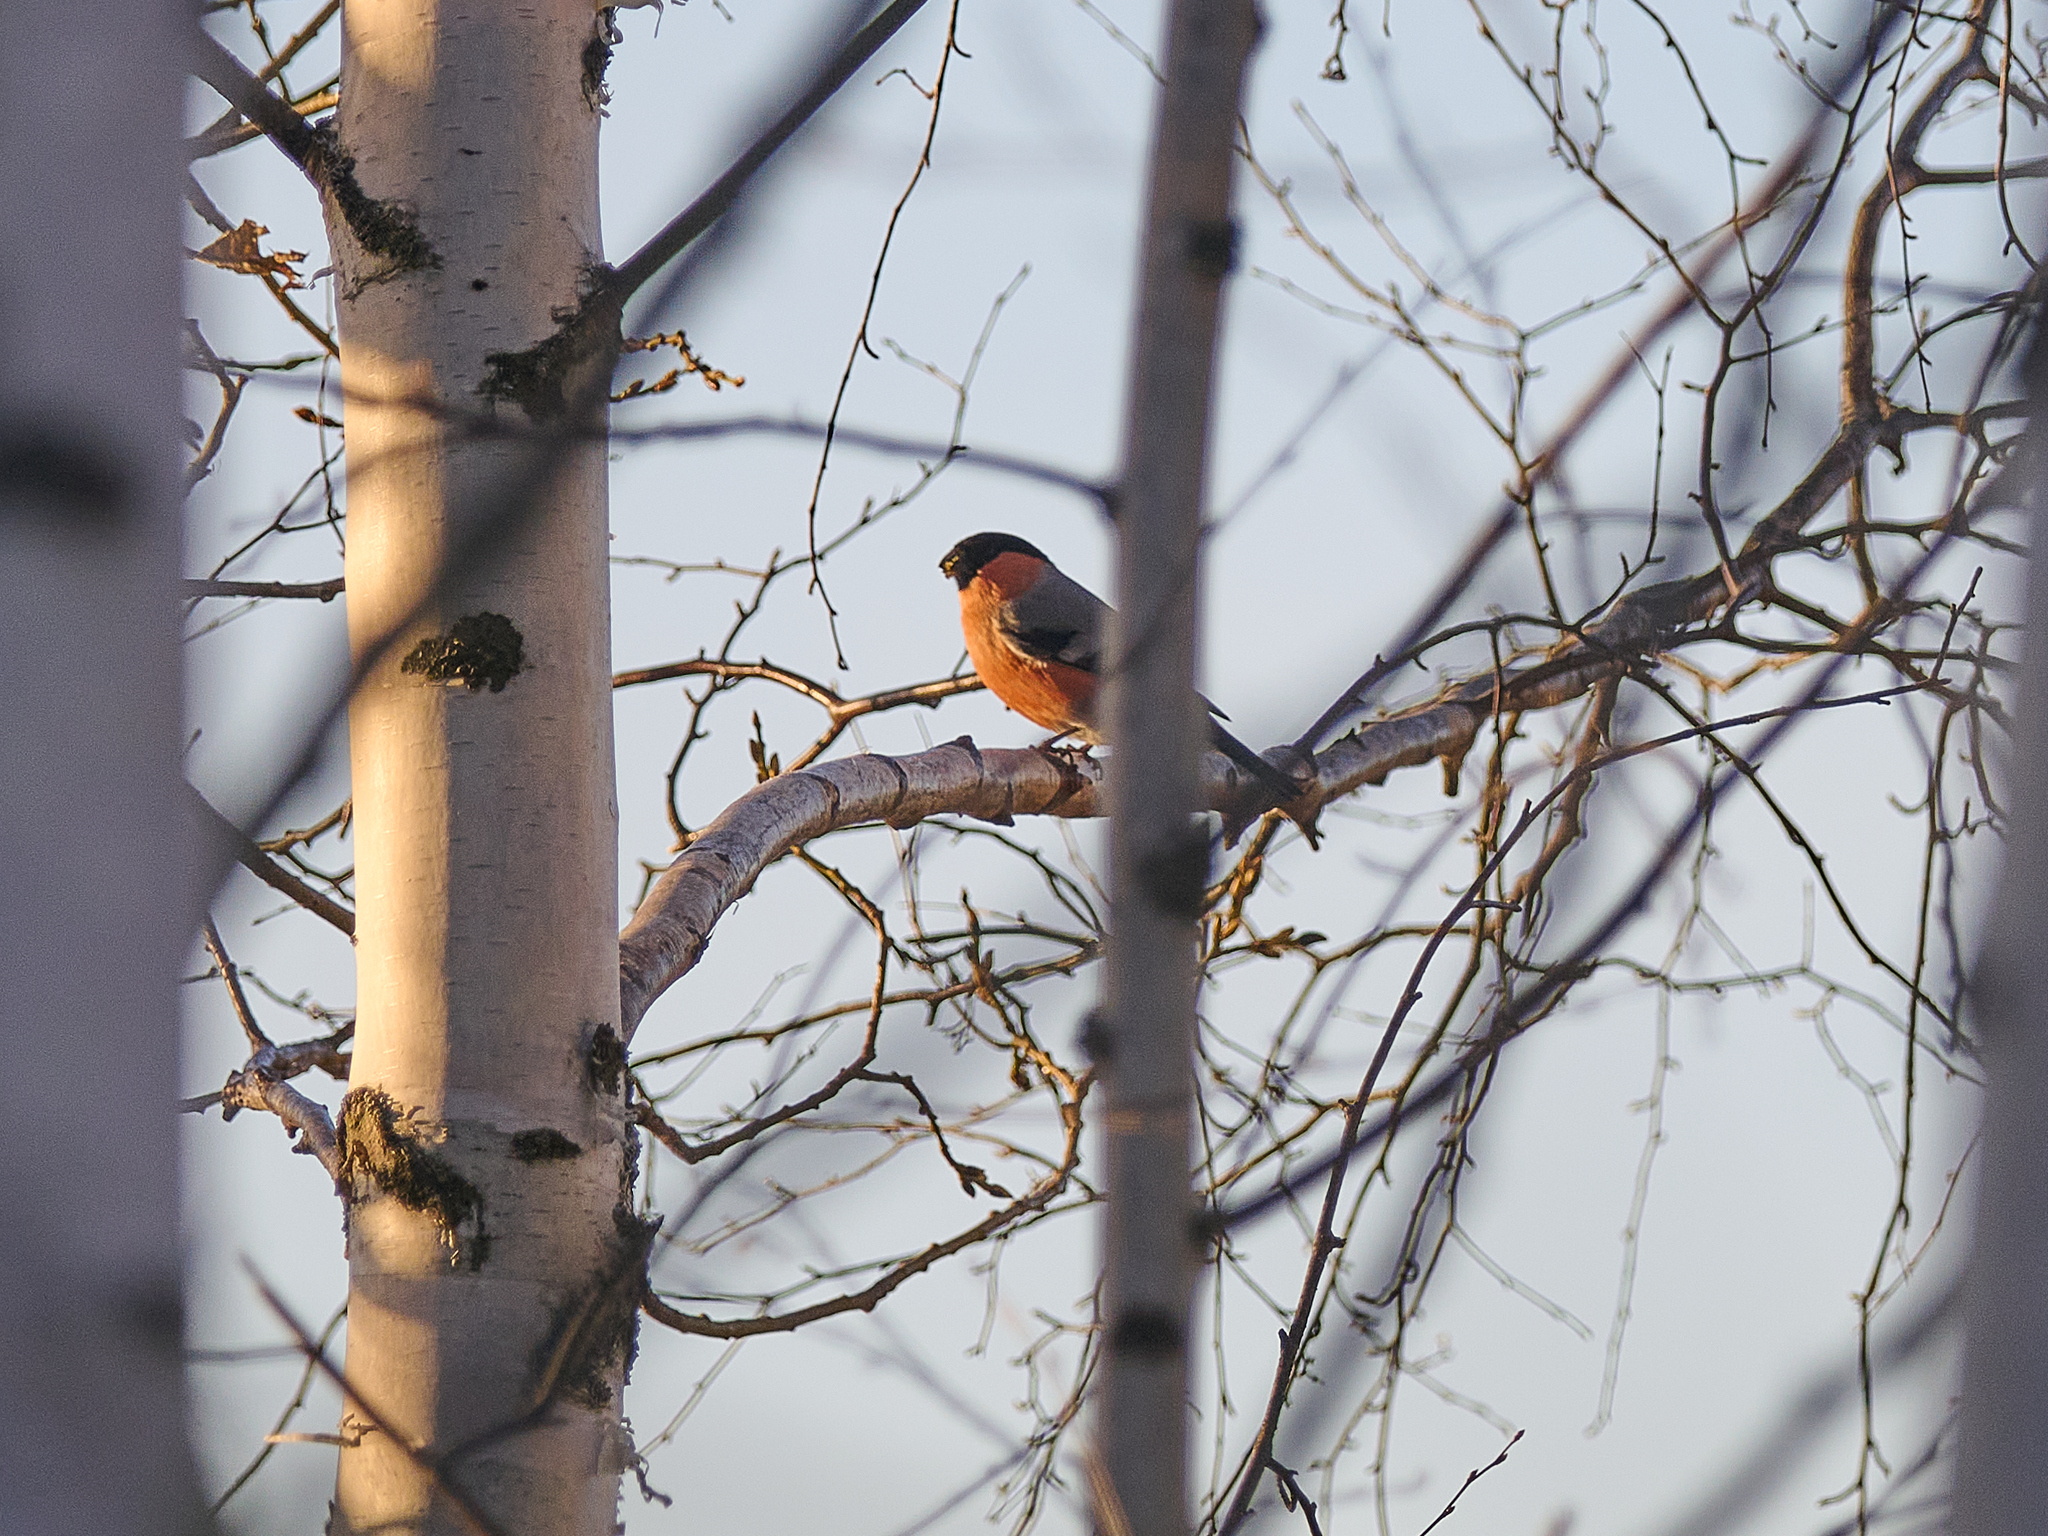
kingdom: Animalia
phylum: Chordata
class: Aves
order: Passeriformes
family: Fringillidae
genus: Pyrrhula
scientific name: Pyrrhula pyrrhula
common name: Eurasian bullfinch
